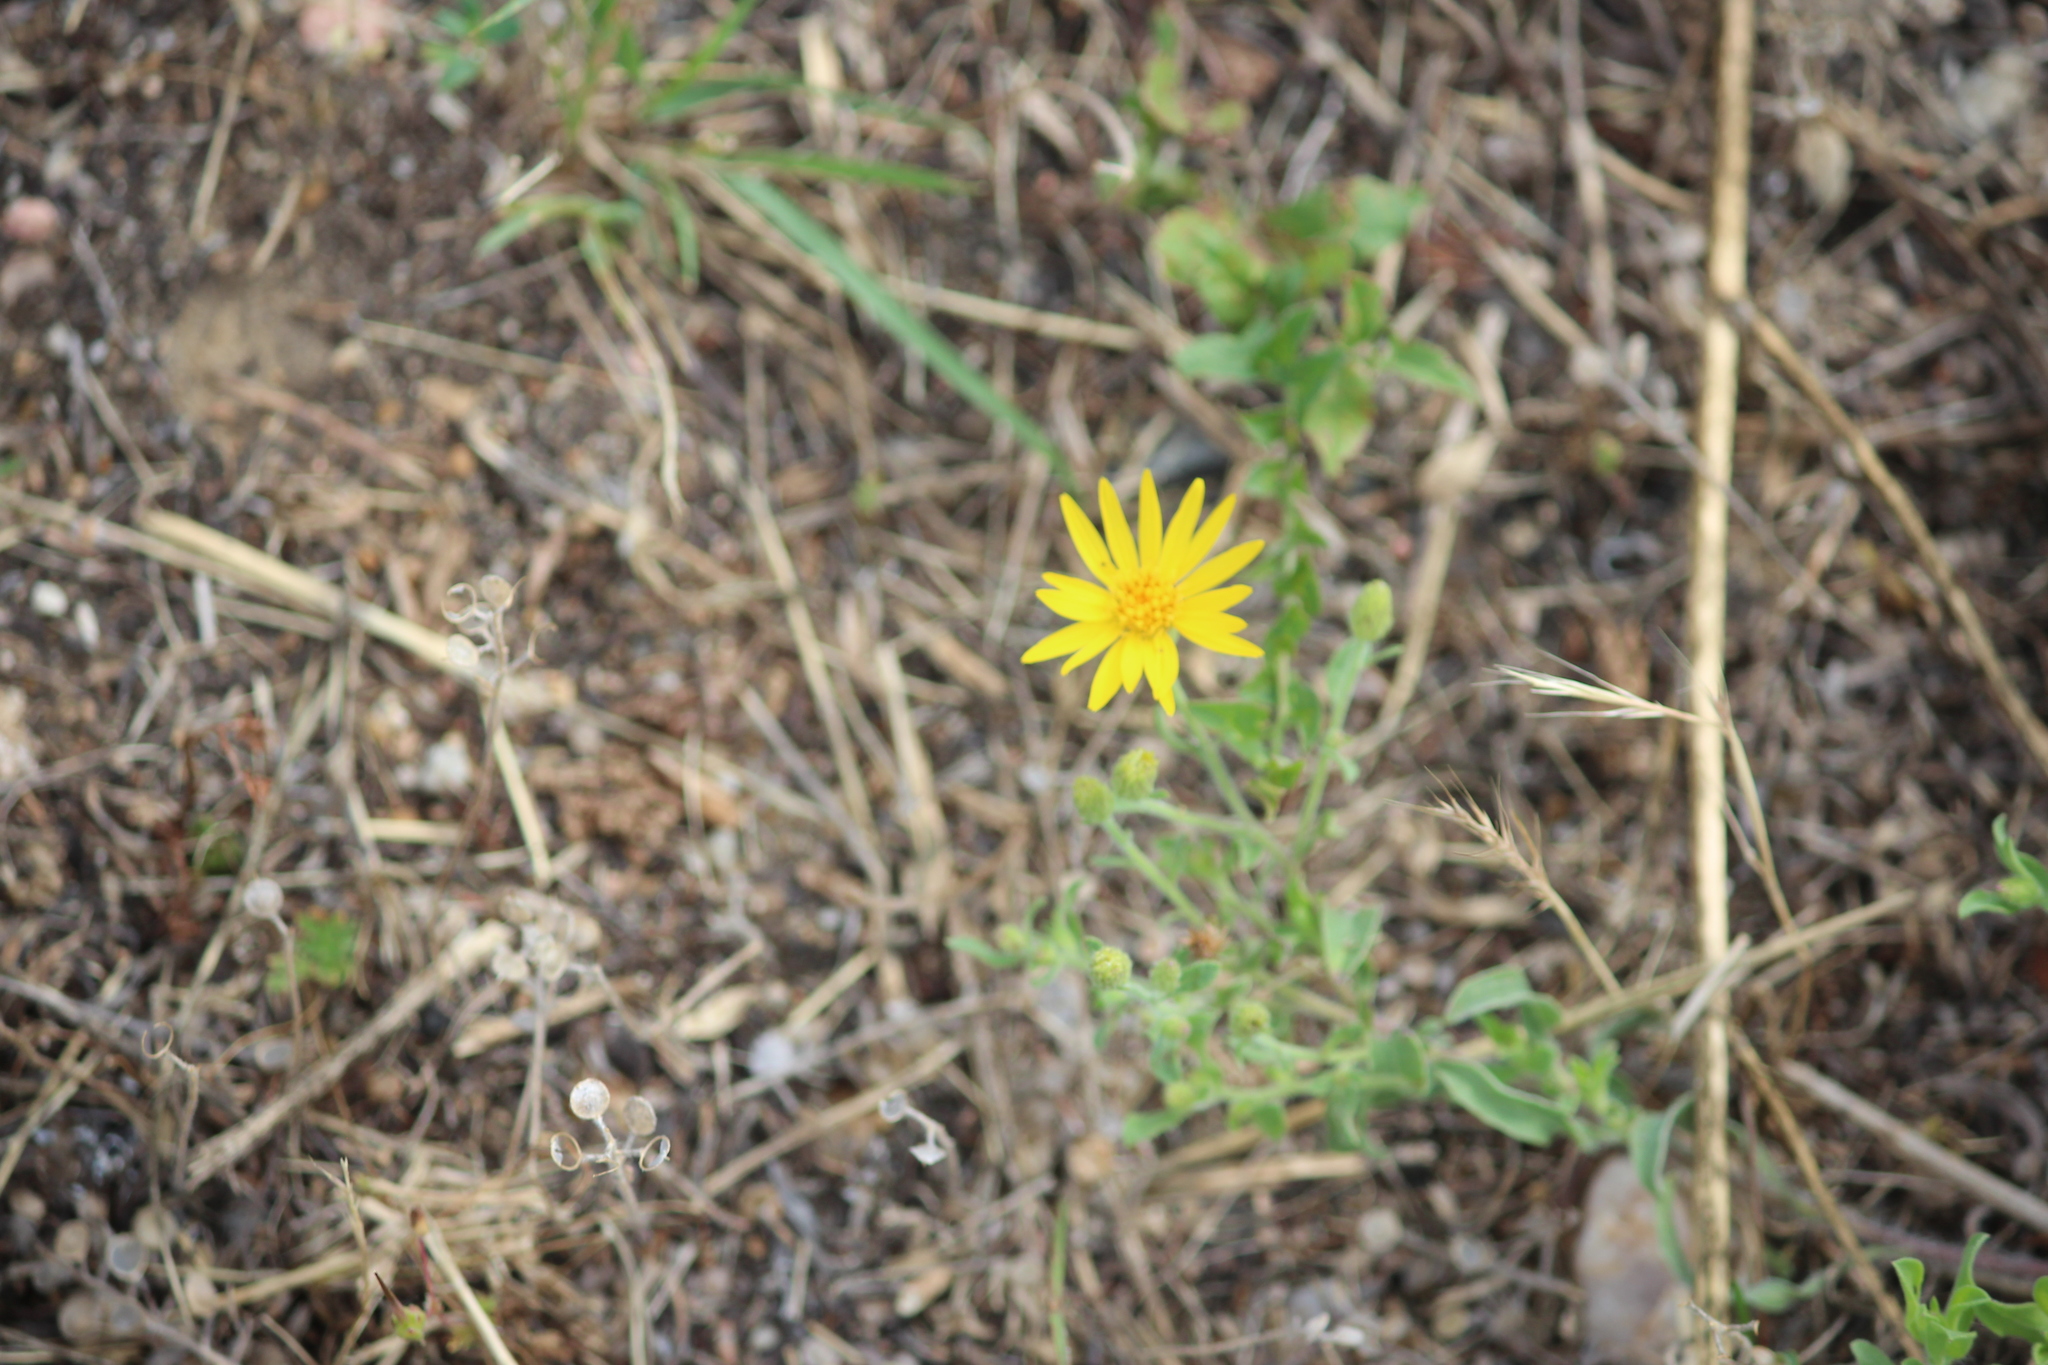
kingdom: Plantae
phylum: Tracheophyta
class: Magnoliopsida
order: Asterales
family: Asteraceae
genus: Heterotheca
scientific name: Heterotheca villosa
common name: Hairy false goldenaster
